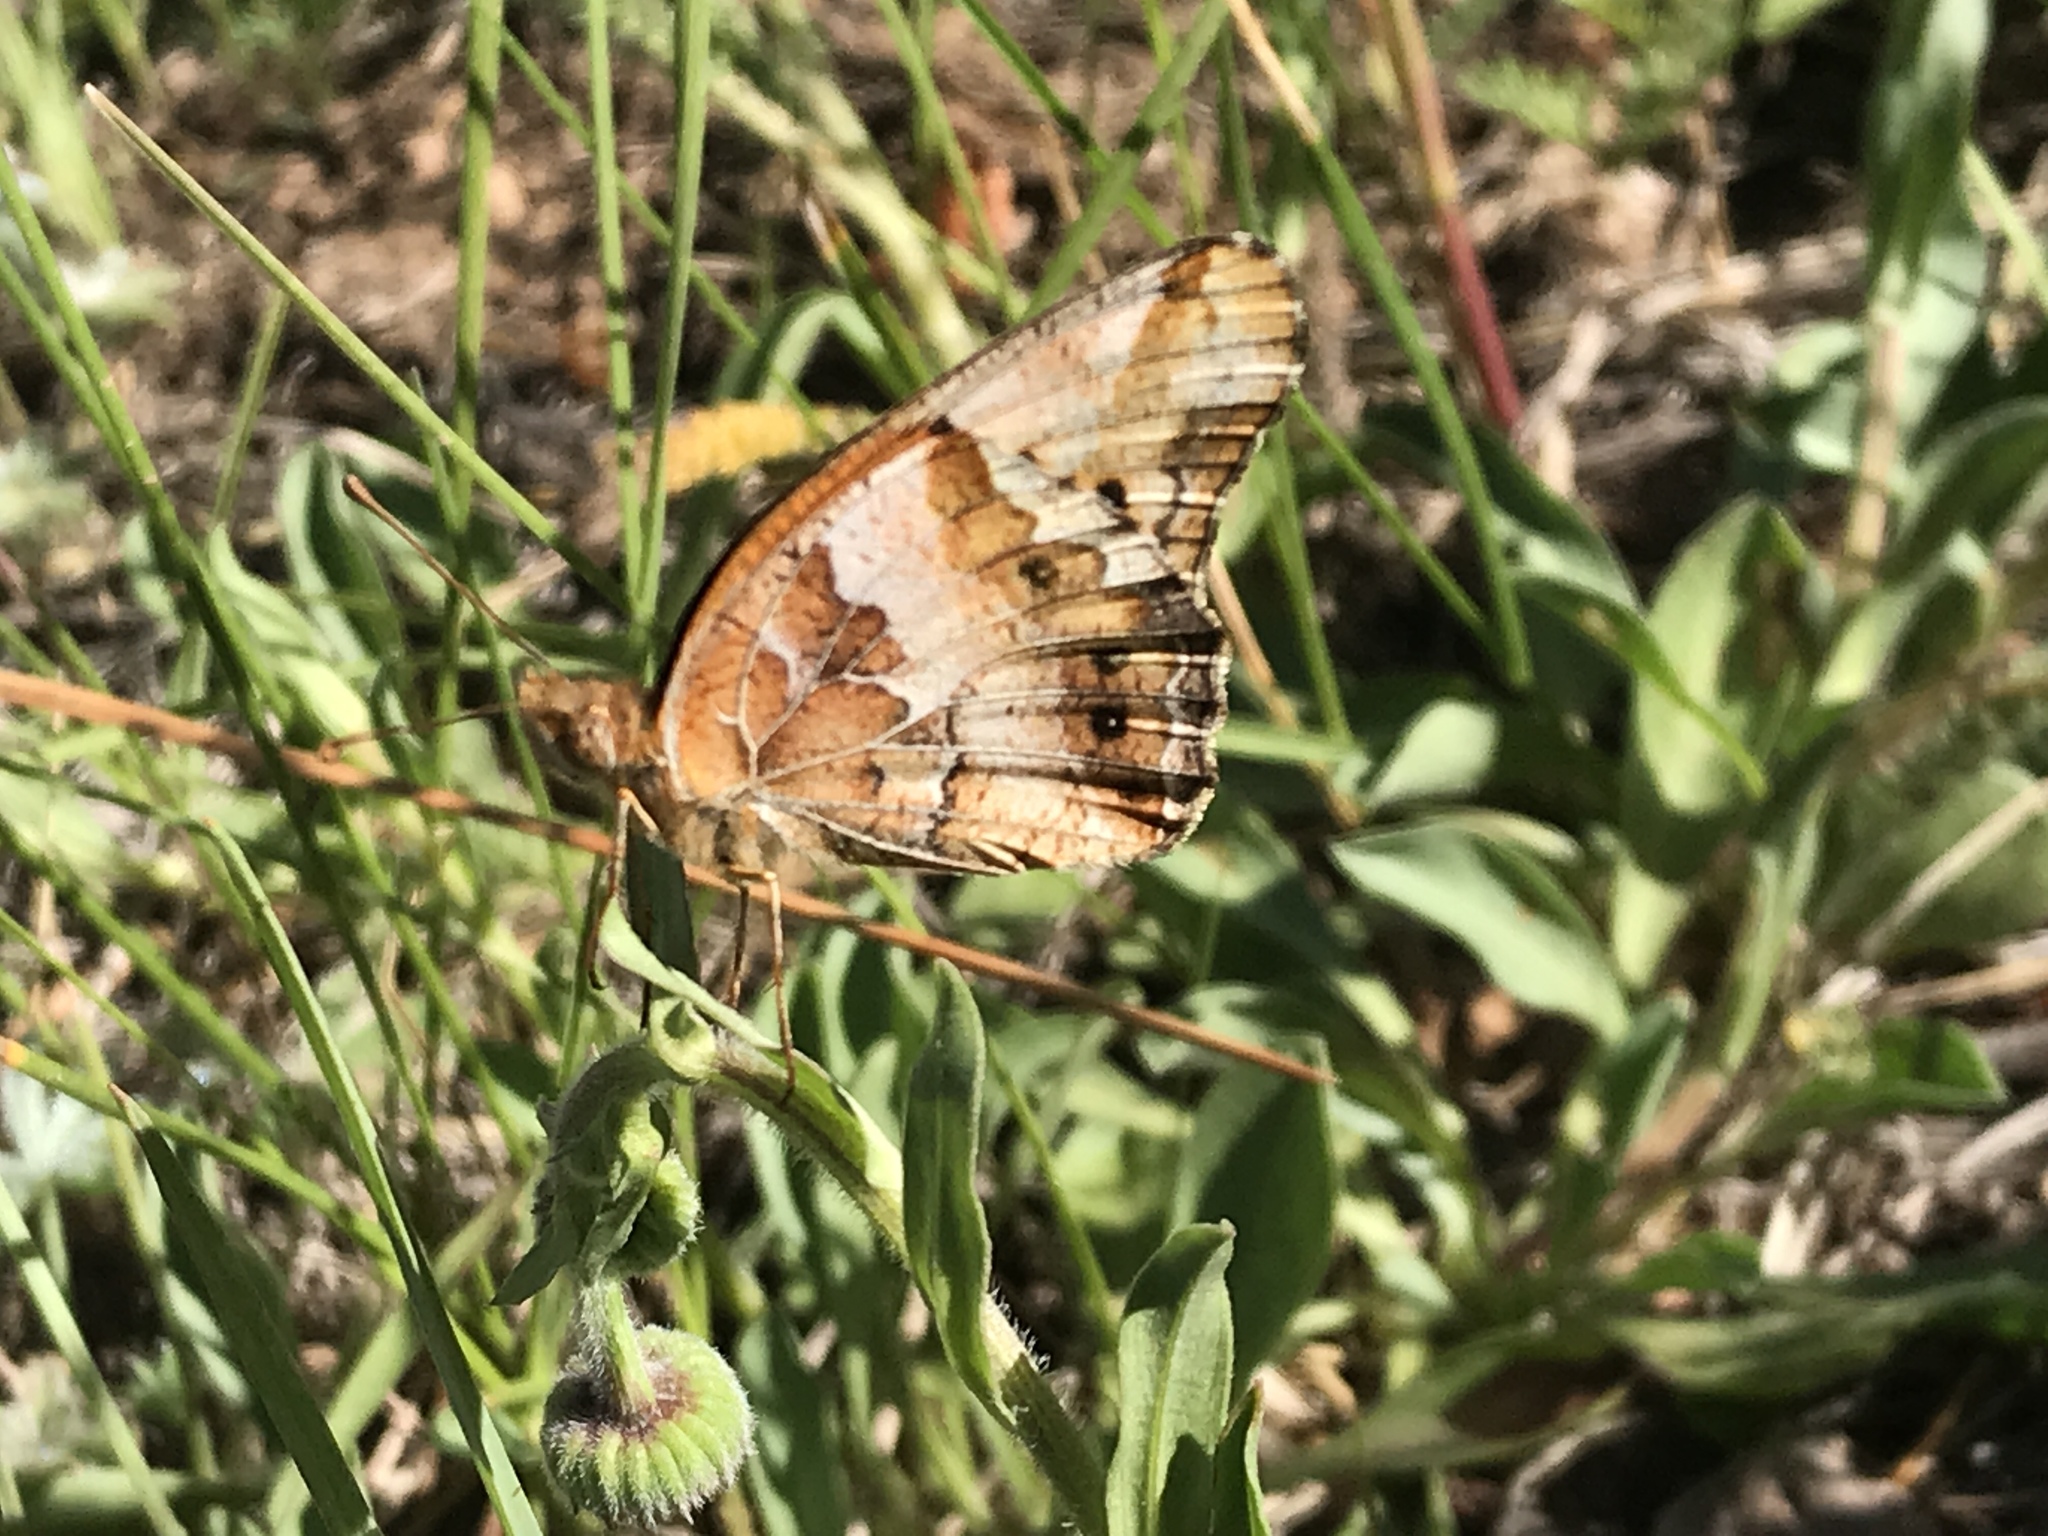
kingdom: Animalia
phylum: Arthropoda
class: Insecta
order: Lepidoptera
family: Nymphalidae
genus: Euptoieta
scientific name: Euptoieta claudia
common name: Variegated fritillary
